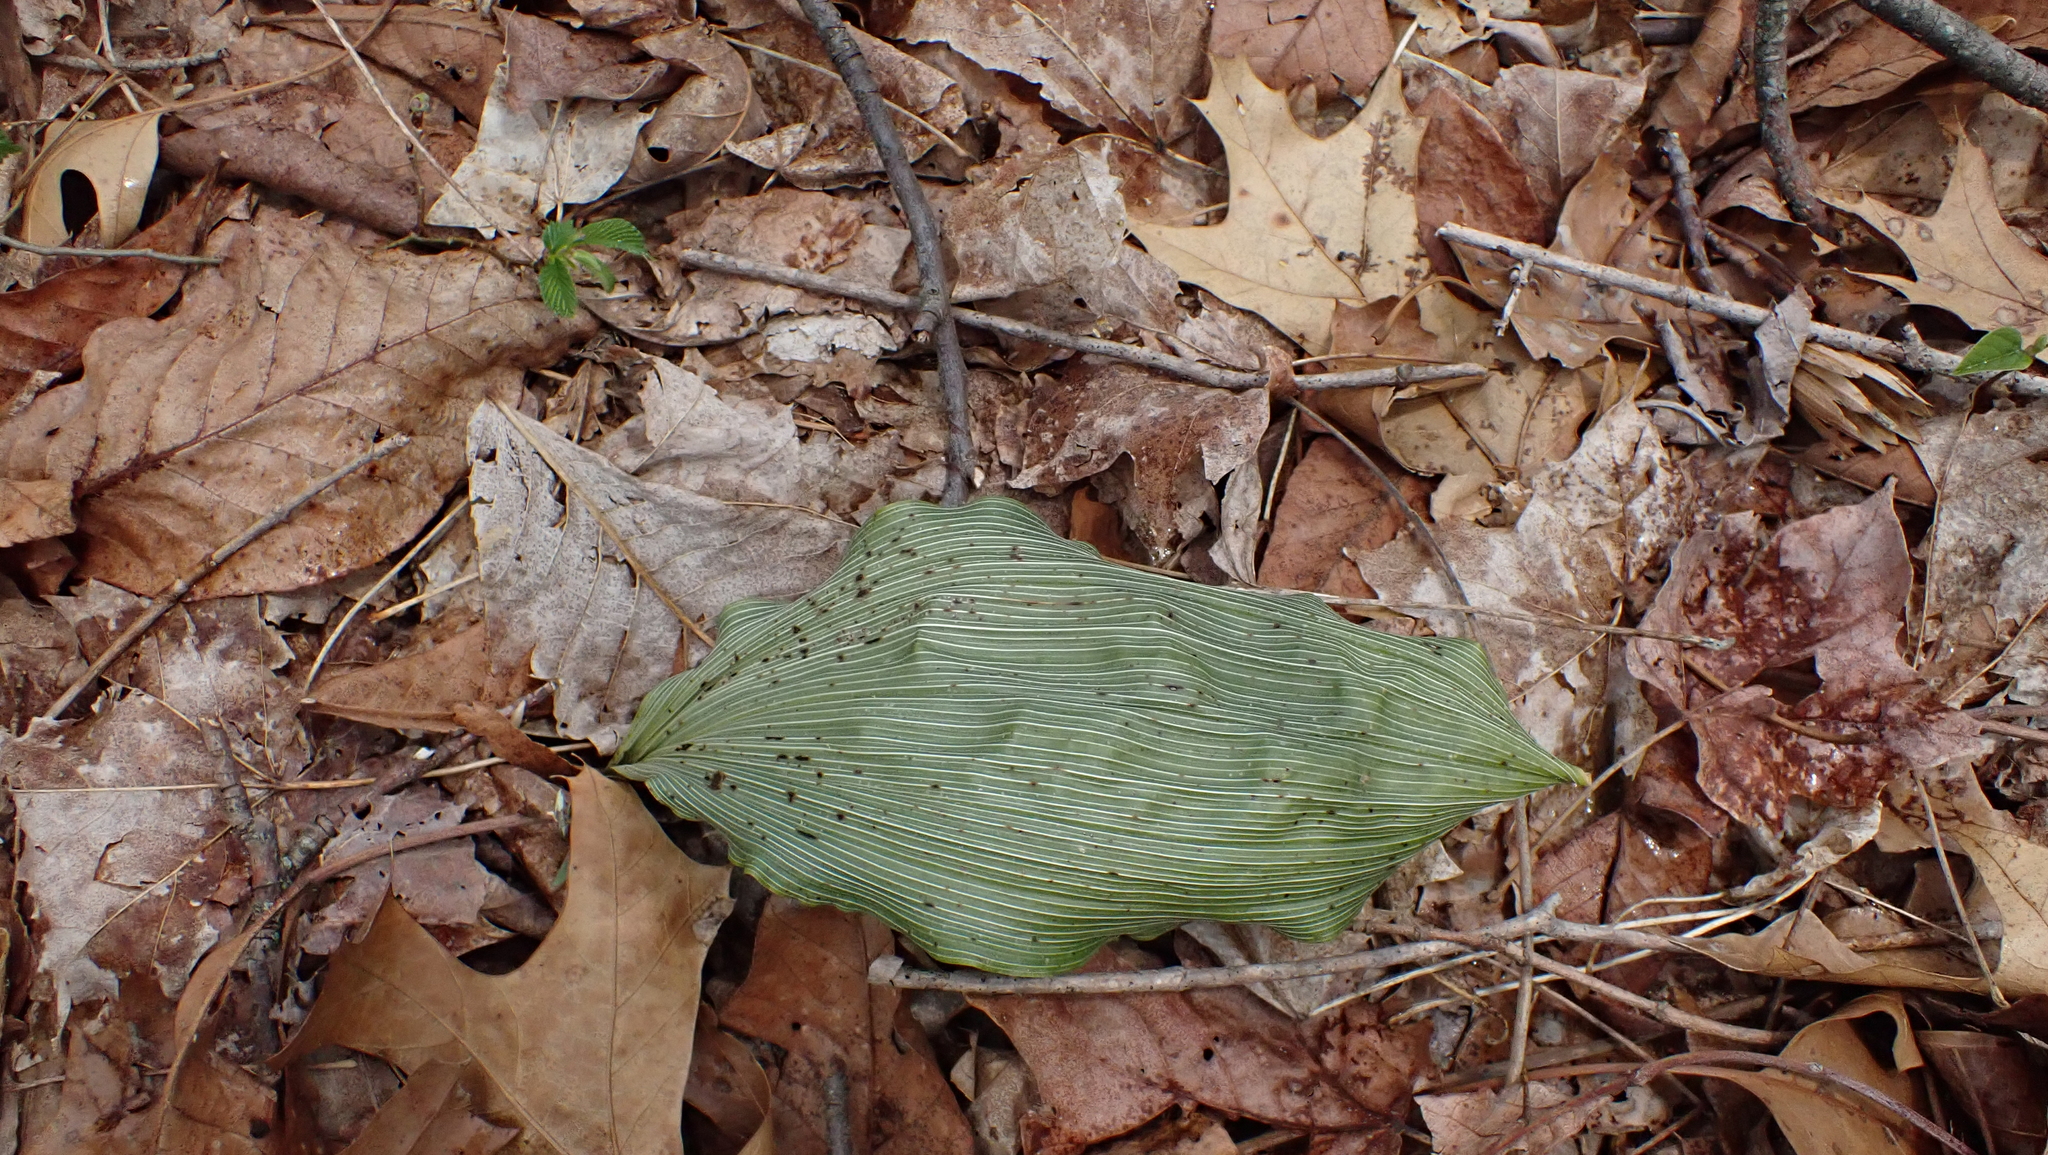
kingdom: Plantae
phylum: Tracheophyta
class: Liliopsida
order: Asparagales
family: Orchidaceae
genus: Aplectrum
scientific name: Aplectrum hyemale
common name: Adam-and-eve
